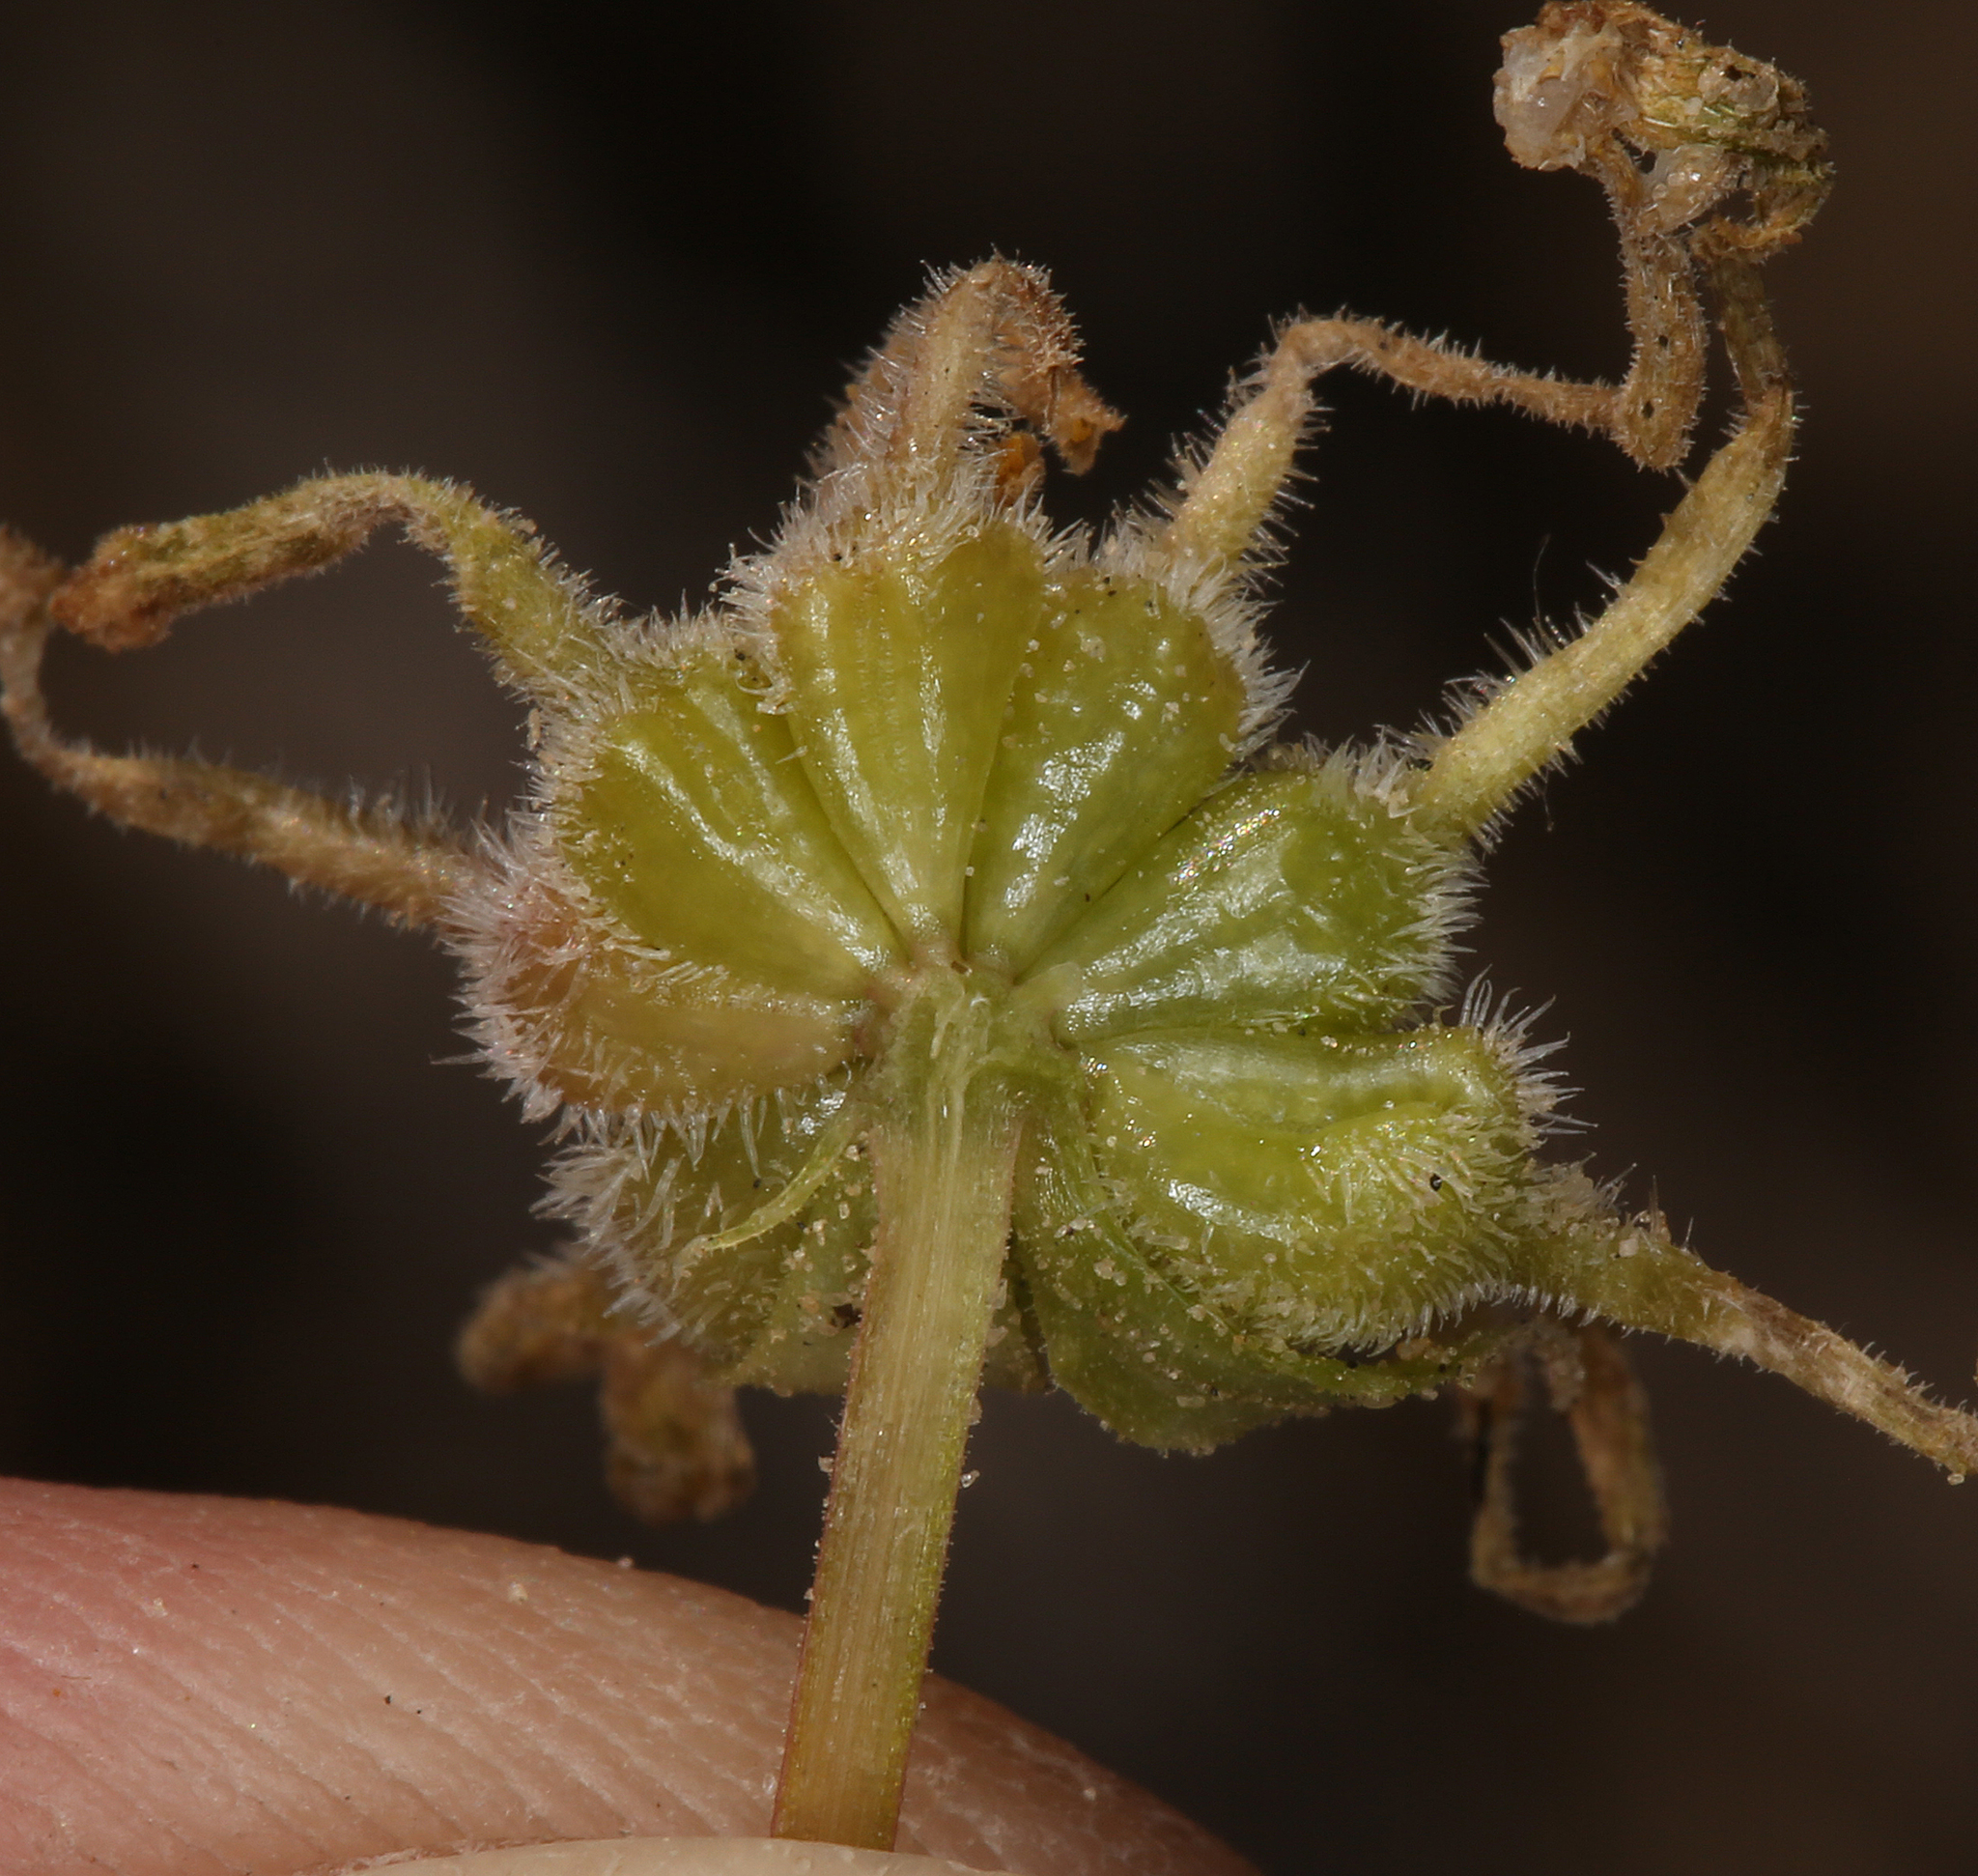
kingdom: Plantae
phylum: Tracheophyta
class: Magnoliopsida
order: Caryophyllales
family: Nyctaginaceae
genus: Abronia
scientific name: Abronia turbinata
